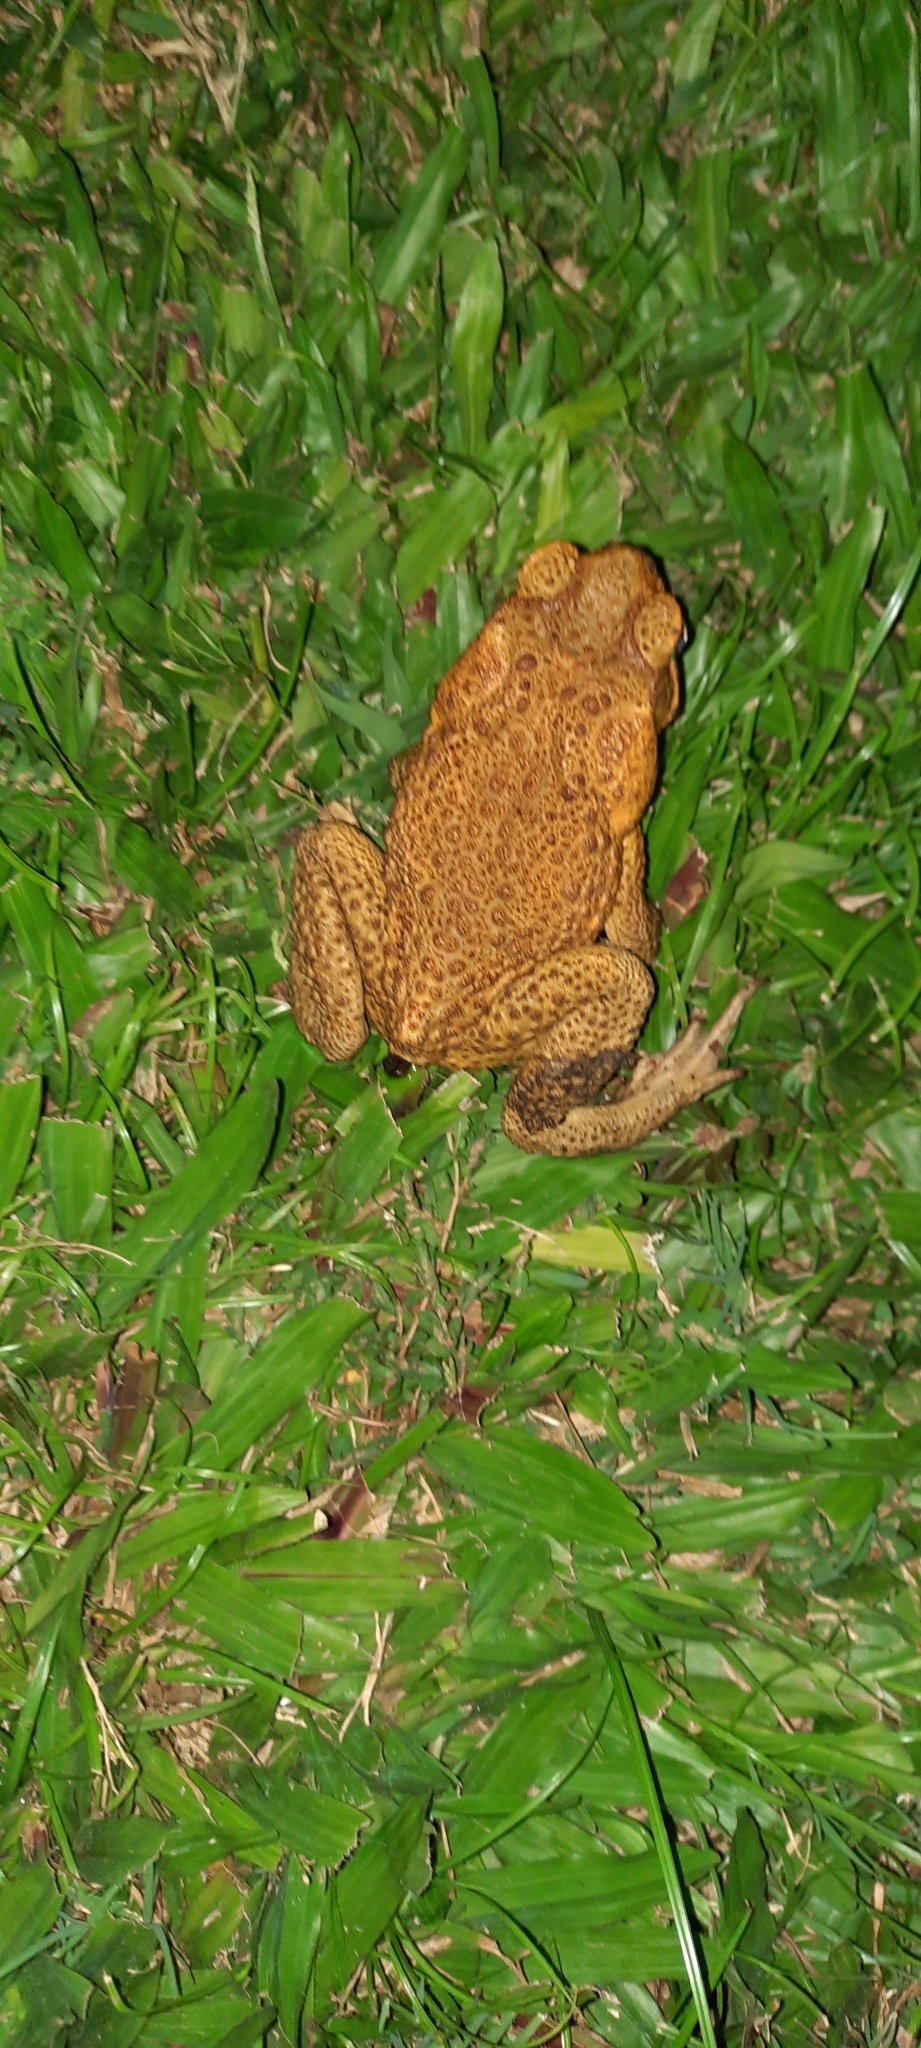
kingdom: Animalia
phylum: Chordata
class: Amphibia
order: Anura
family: Bufonidae
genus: Rhinella
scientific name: Rhinella marina
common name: Cane toad
